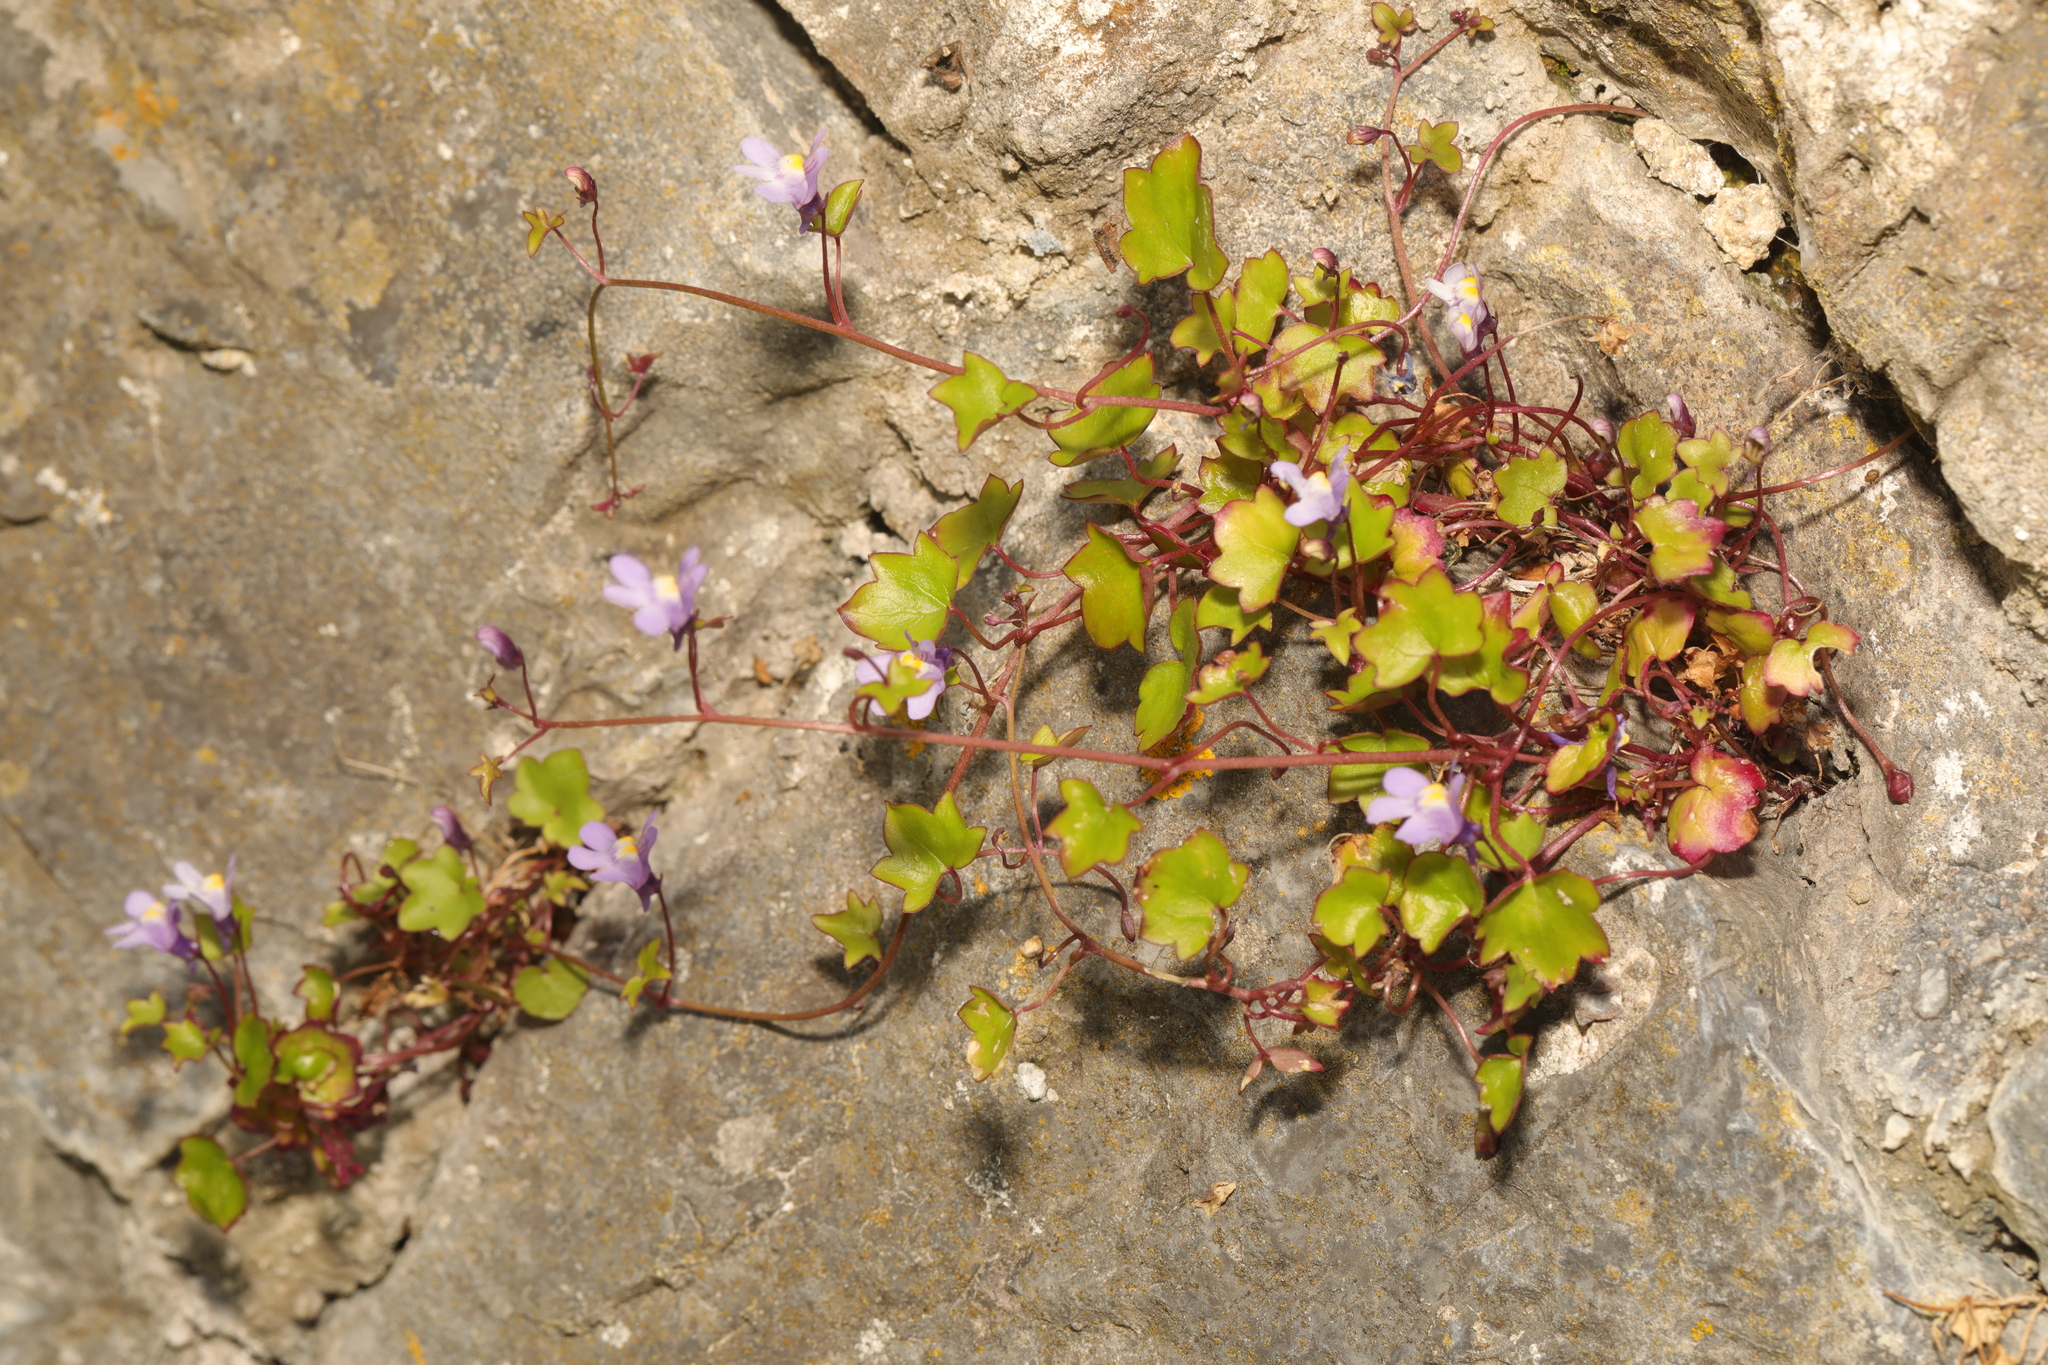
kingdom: Plantae
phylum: Tracheophyta
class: Magnoliopsida
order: Lamiales
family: Plantaginaceae
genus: Cymbalaria
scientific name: Cymbalaria muralis
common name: Ivy-leaved toadflax
